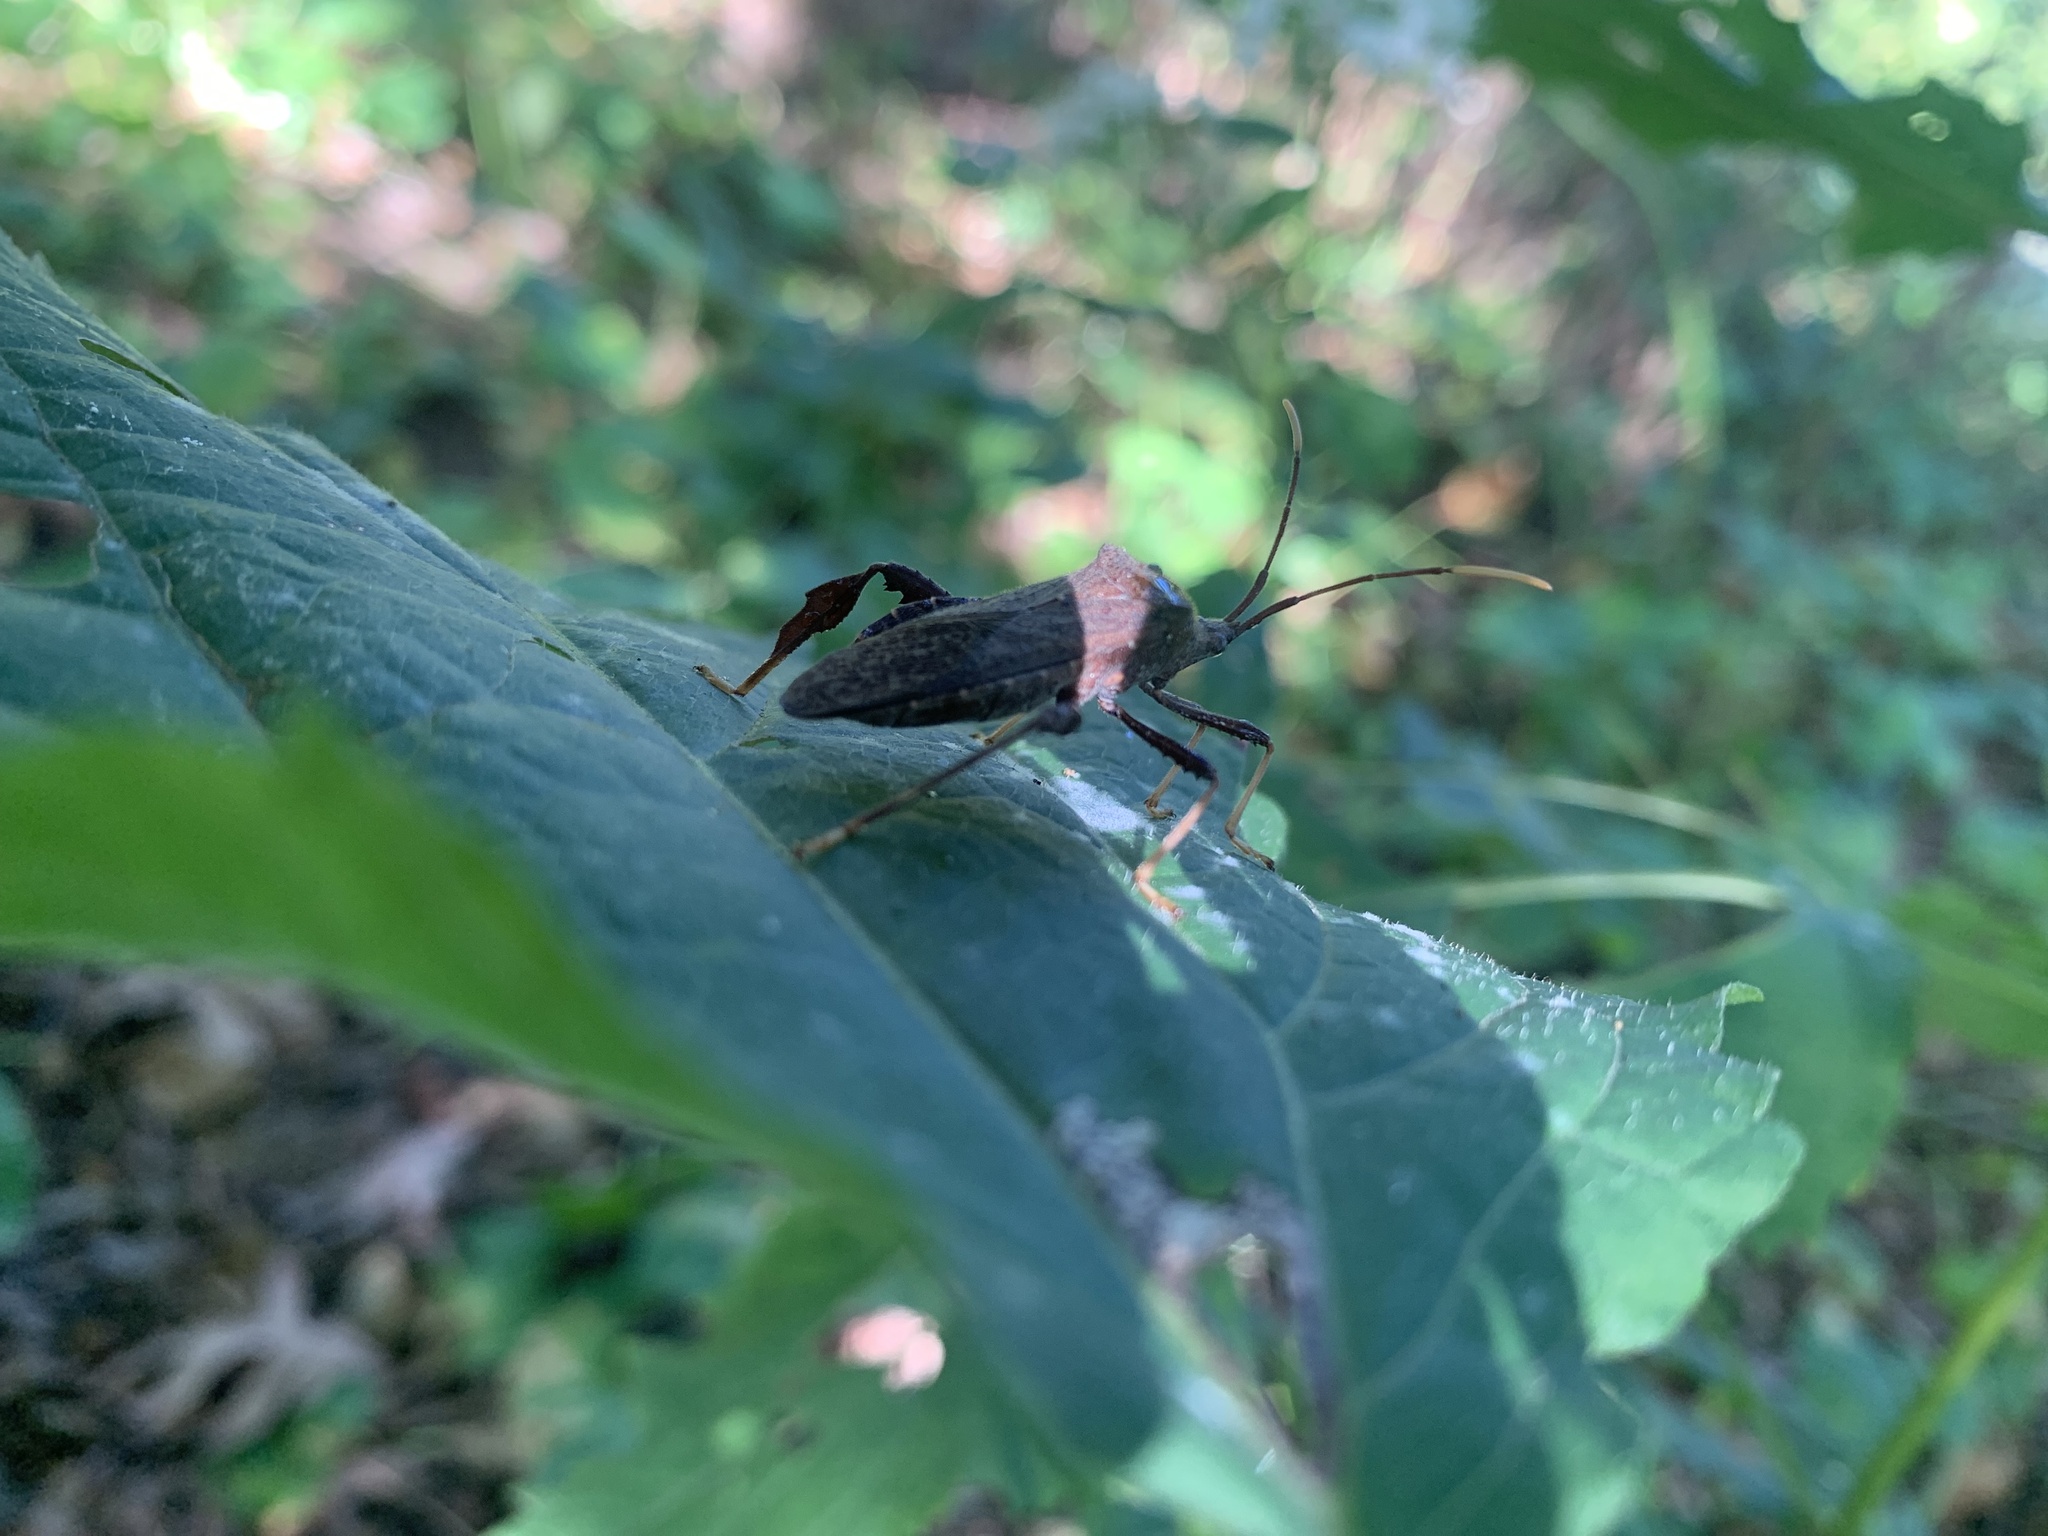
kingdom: Animalia
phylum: Arthropoda
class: Insecta
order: Hemiptera
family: Coreidae
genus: Acanthocephala
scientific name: Acanthocephala terminalis
